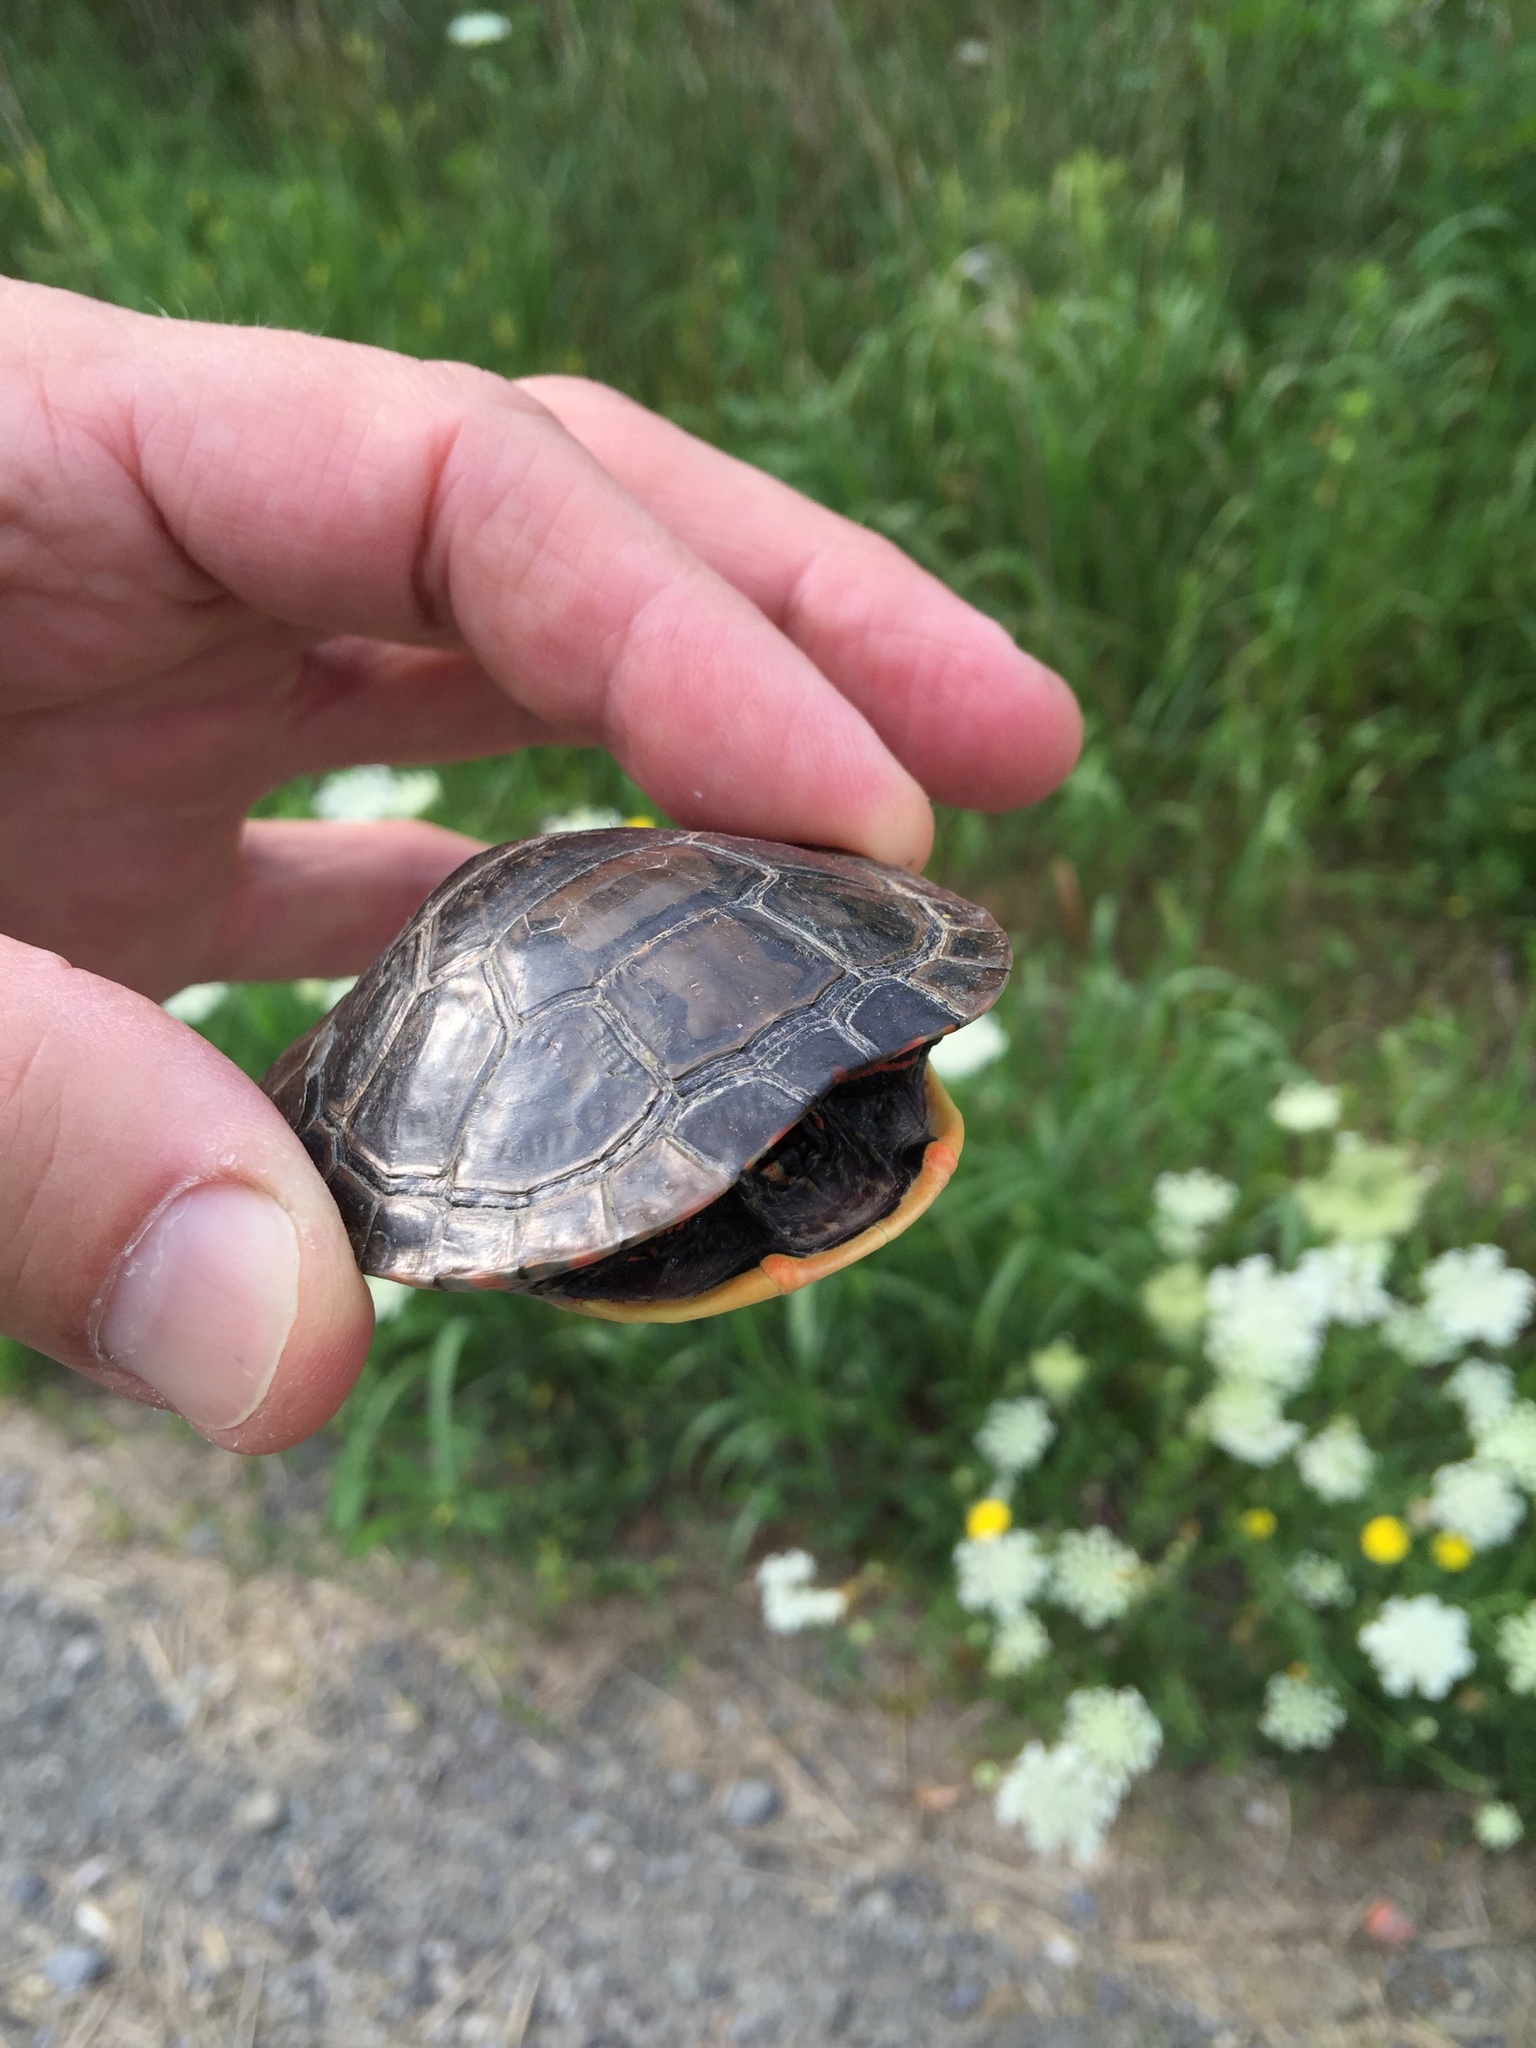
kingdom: Animalia
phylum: Chordata
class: Testudines
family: Emydidae
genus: Chrysemys
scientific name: Chrysemys picta
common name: Painted turtle
